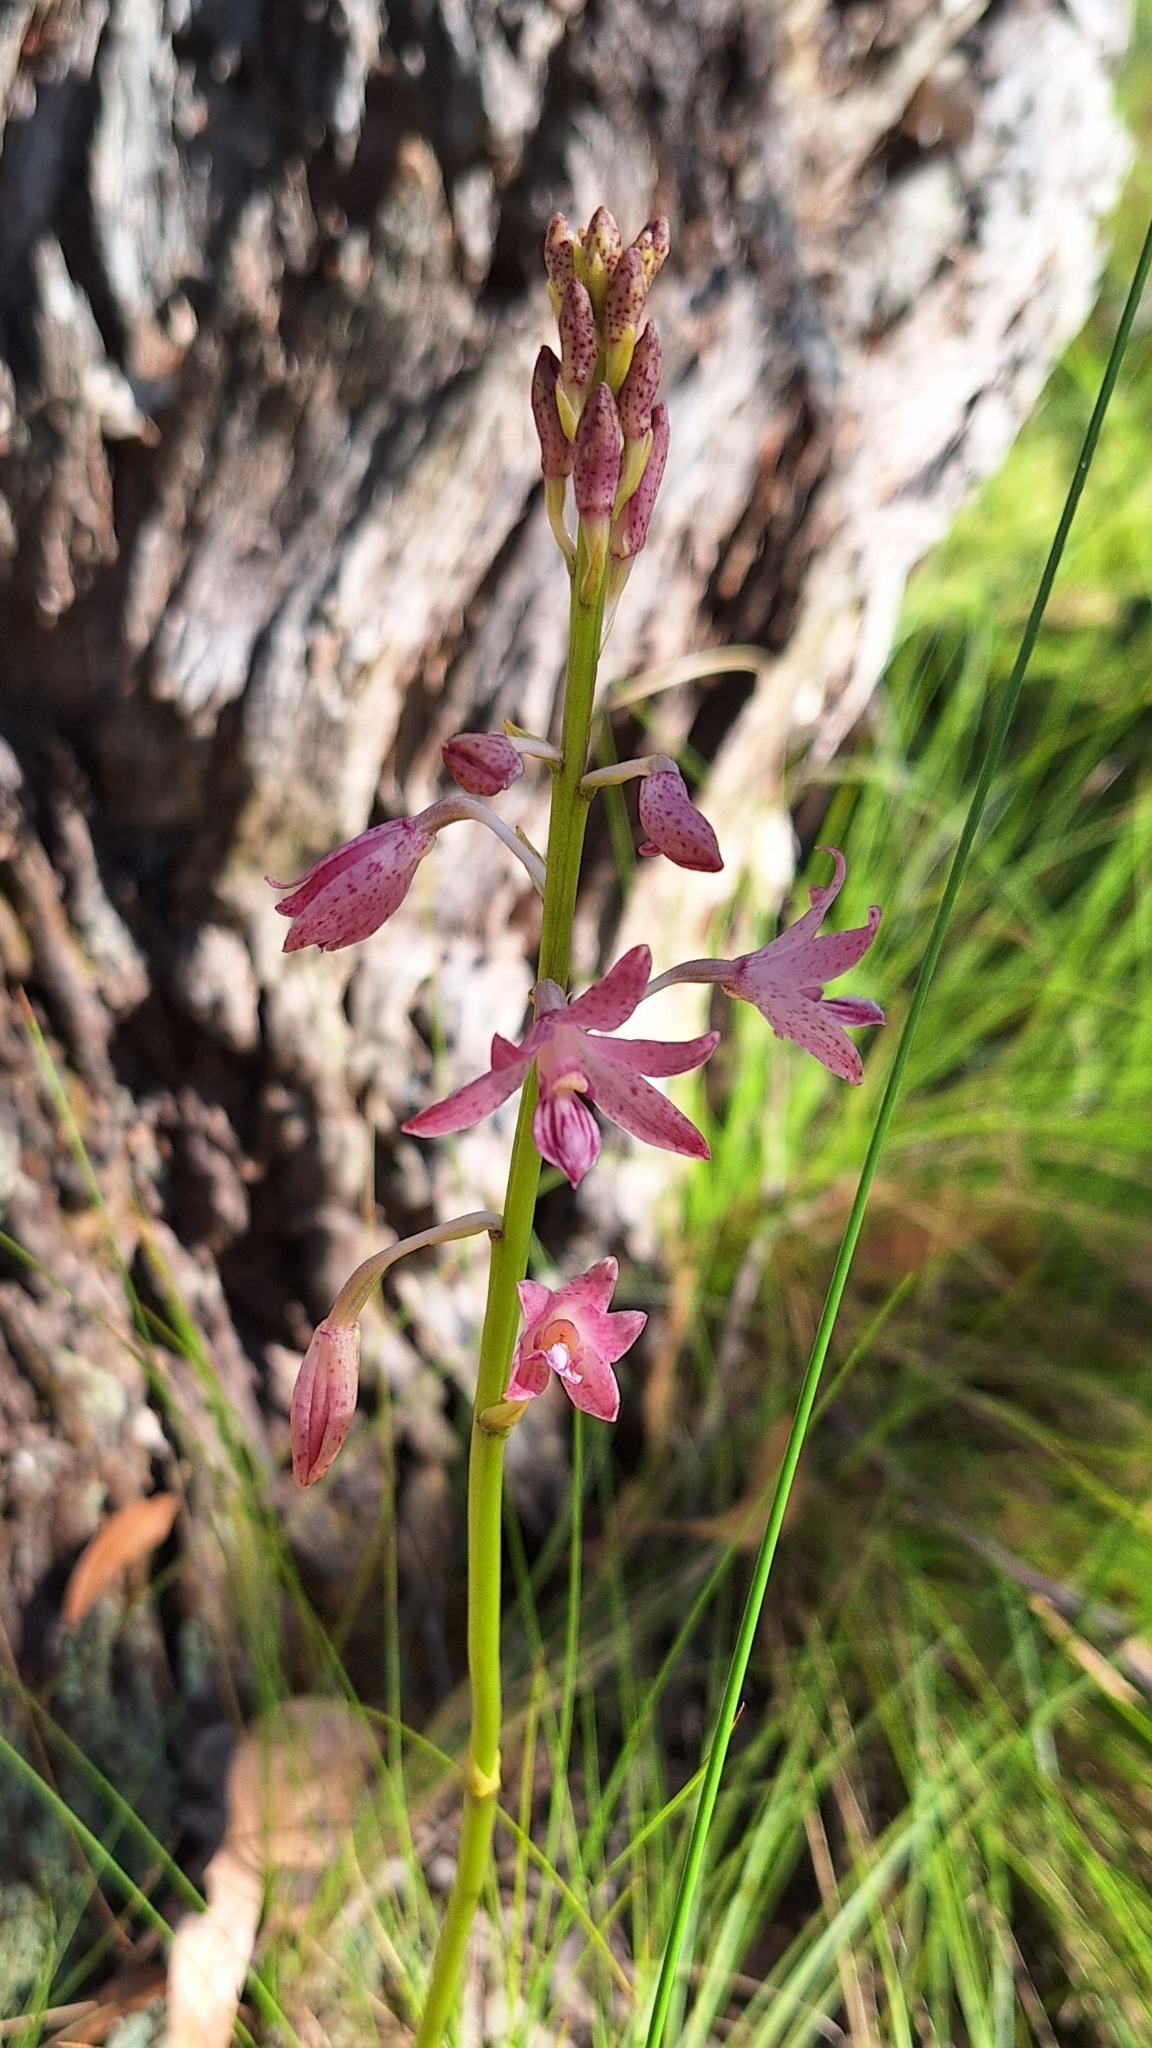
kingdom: Plantae
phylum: Tracheophyta
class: Liliopsida
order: Asparagales
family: Orchidaceae
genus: Dipodium
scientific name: Dipodium roseum
